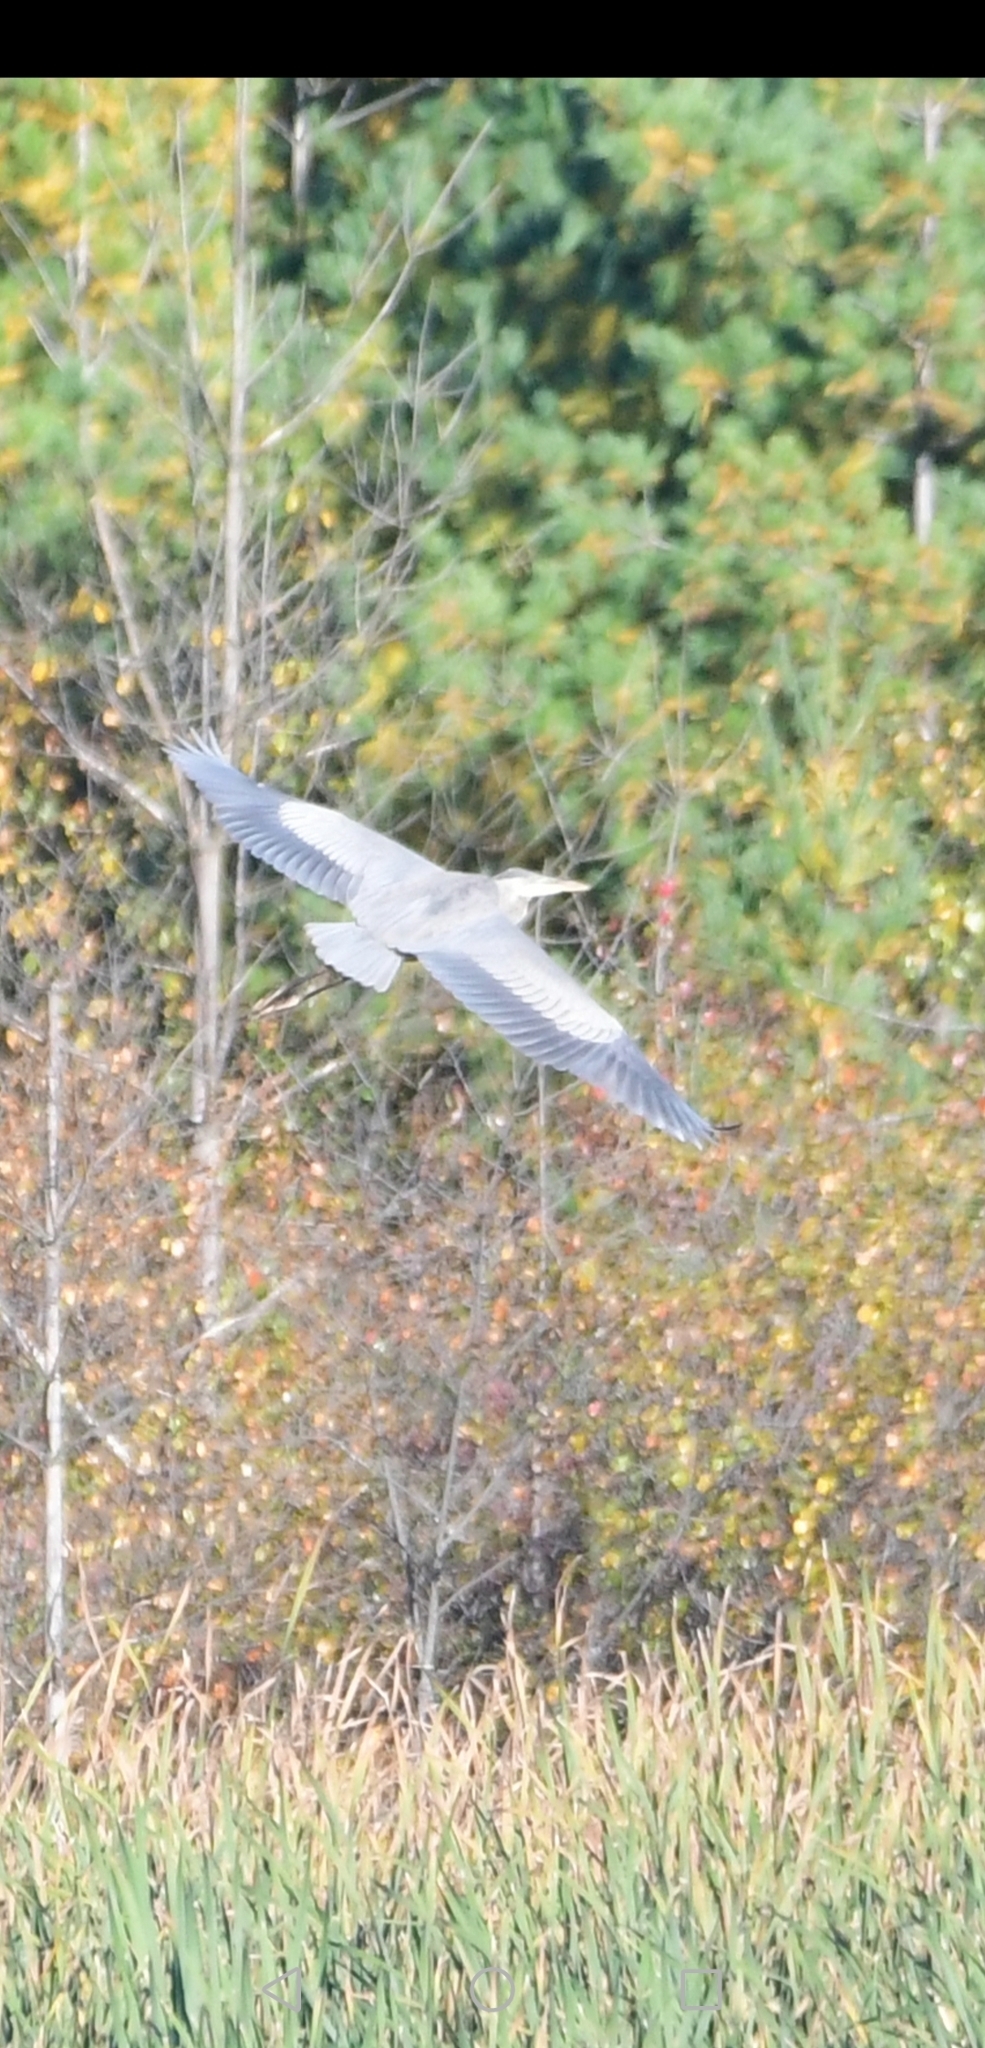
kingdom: Animalia
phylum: Chordata
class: Aves
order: Pelecaniformes
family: Ardeidae
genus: Ardea
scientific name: Ardea herodias
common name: Great blue heron
